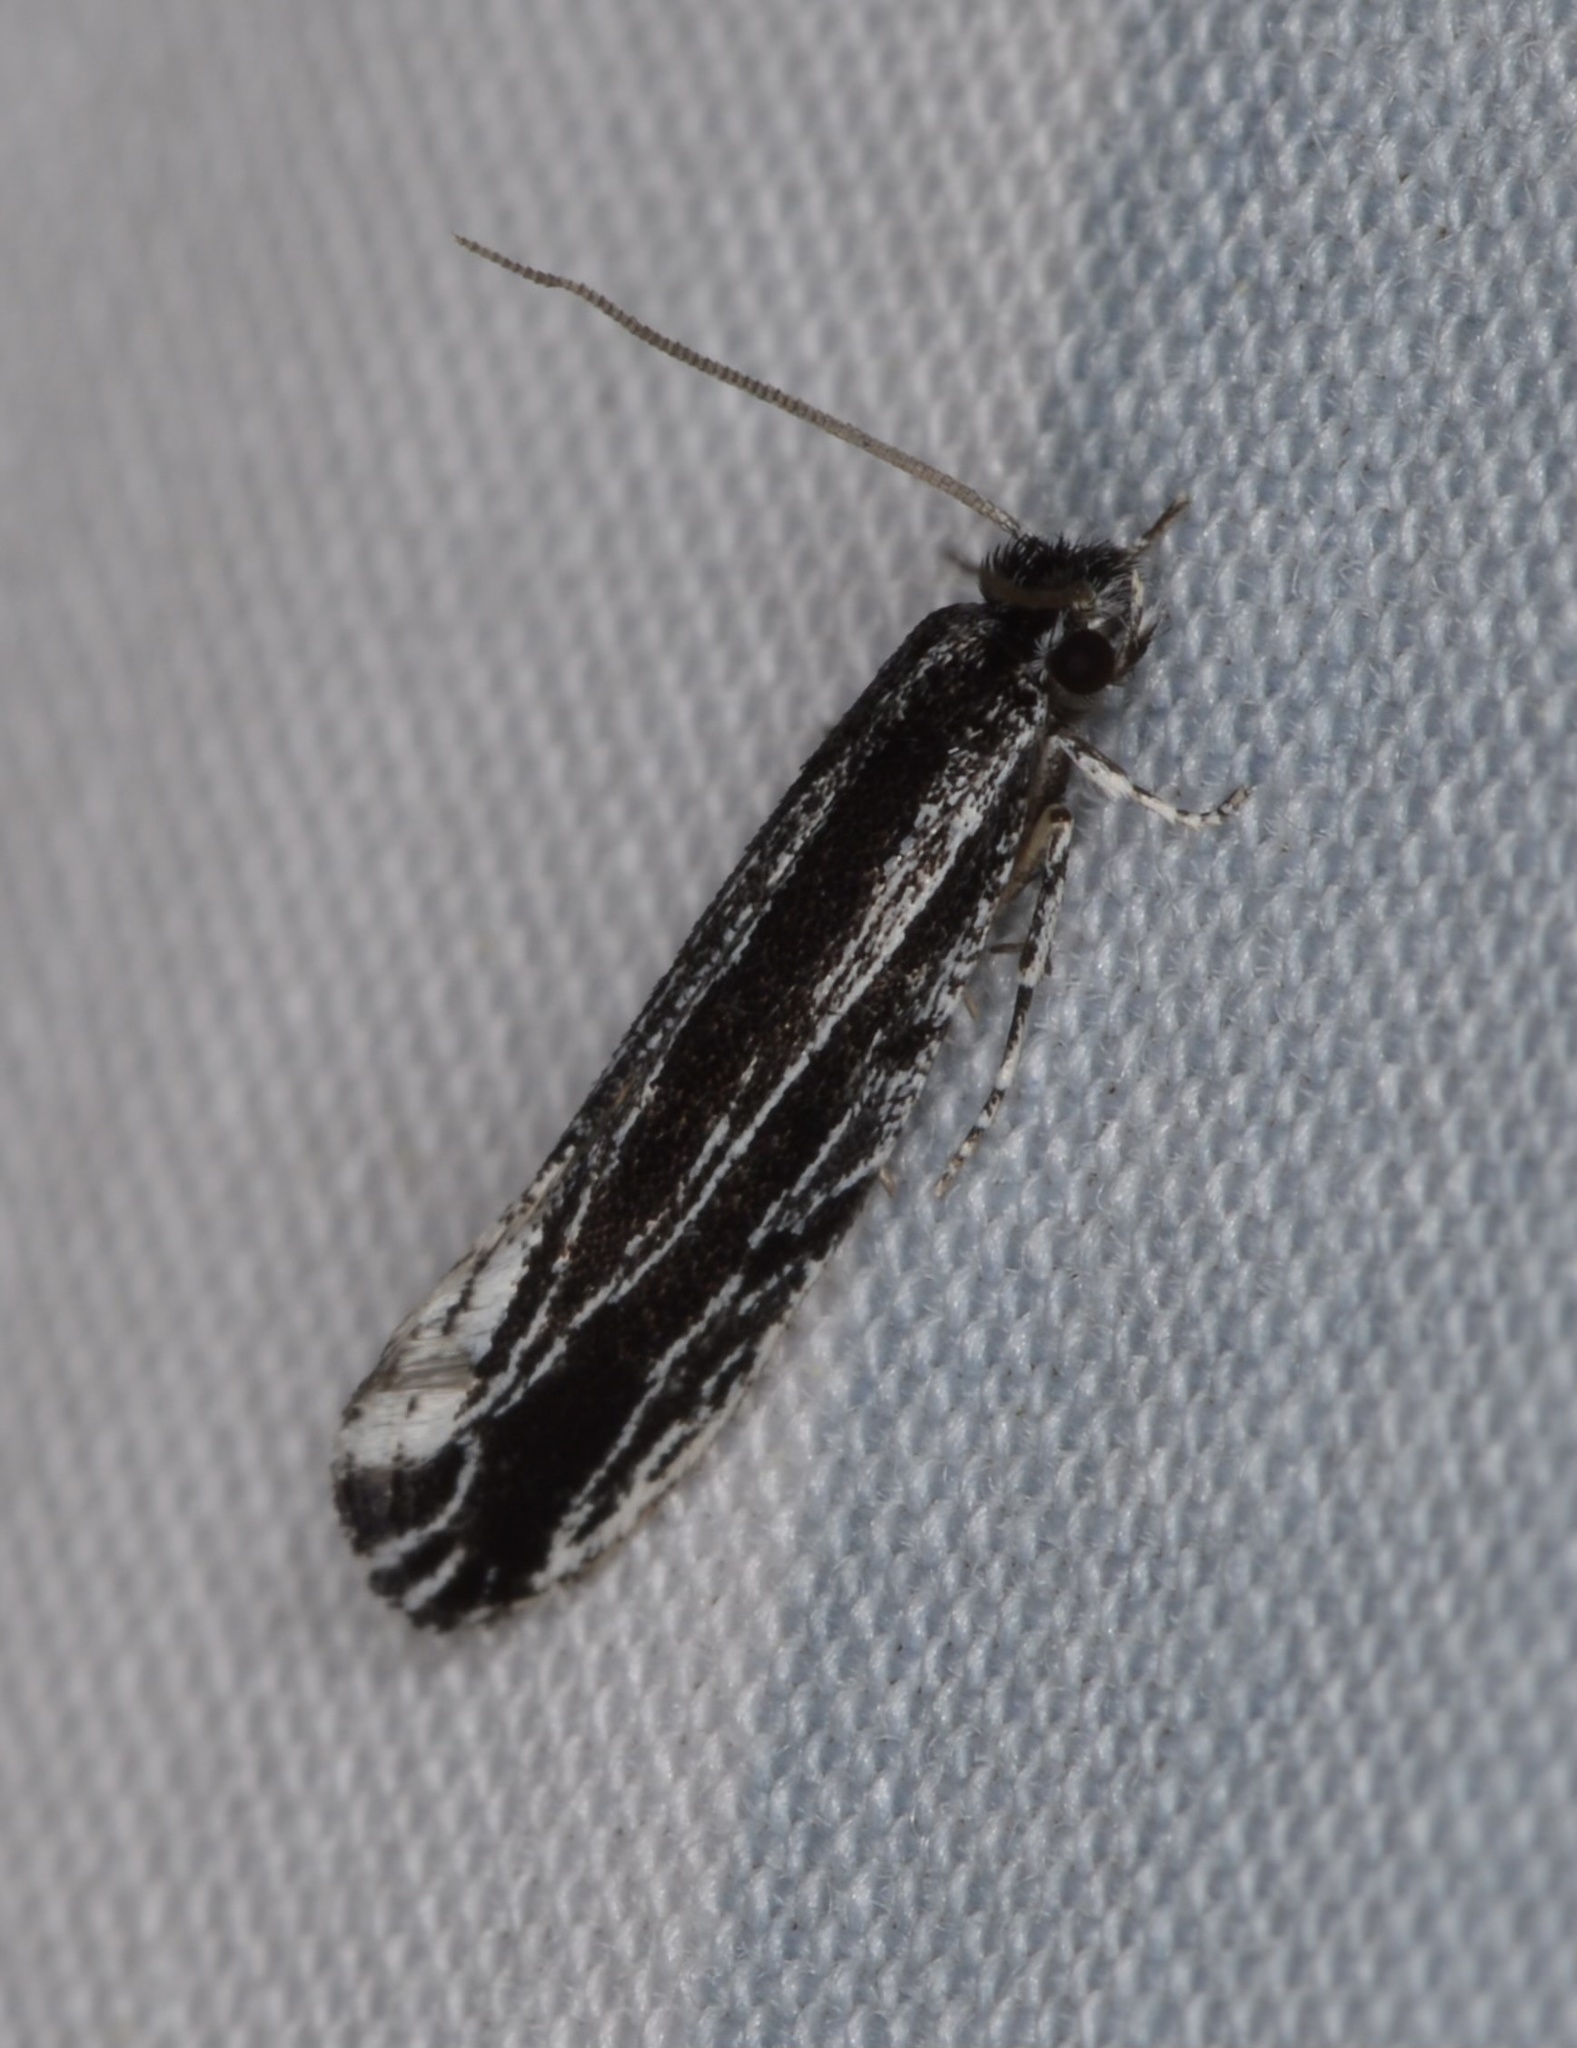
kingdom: Animalia
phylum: Arthropoda
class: Insecta
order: Lepidoptera
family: Tineidae
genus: Nemapogon
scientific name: Nemapogon
